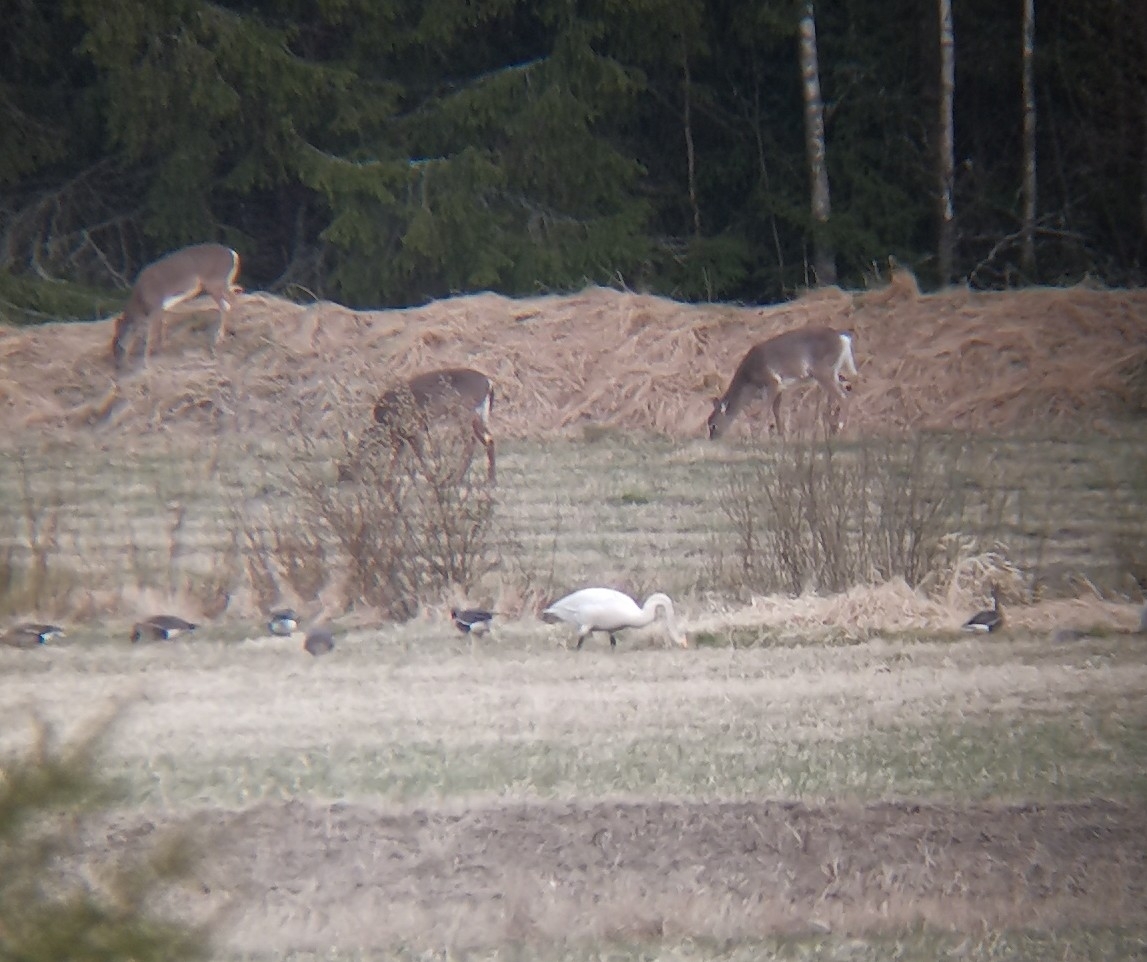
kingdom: Animalia
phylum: Chordata
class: Mammalia
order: Artiodactyla
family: Cervidae
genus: Odocoileus
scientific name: Odocoileus virginianus
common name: White-tailed deer
